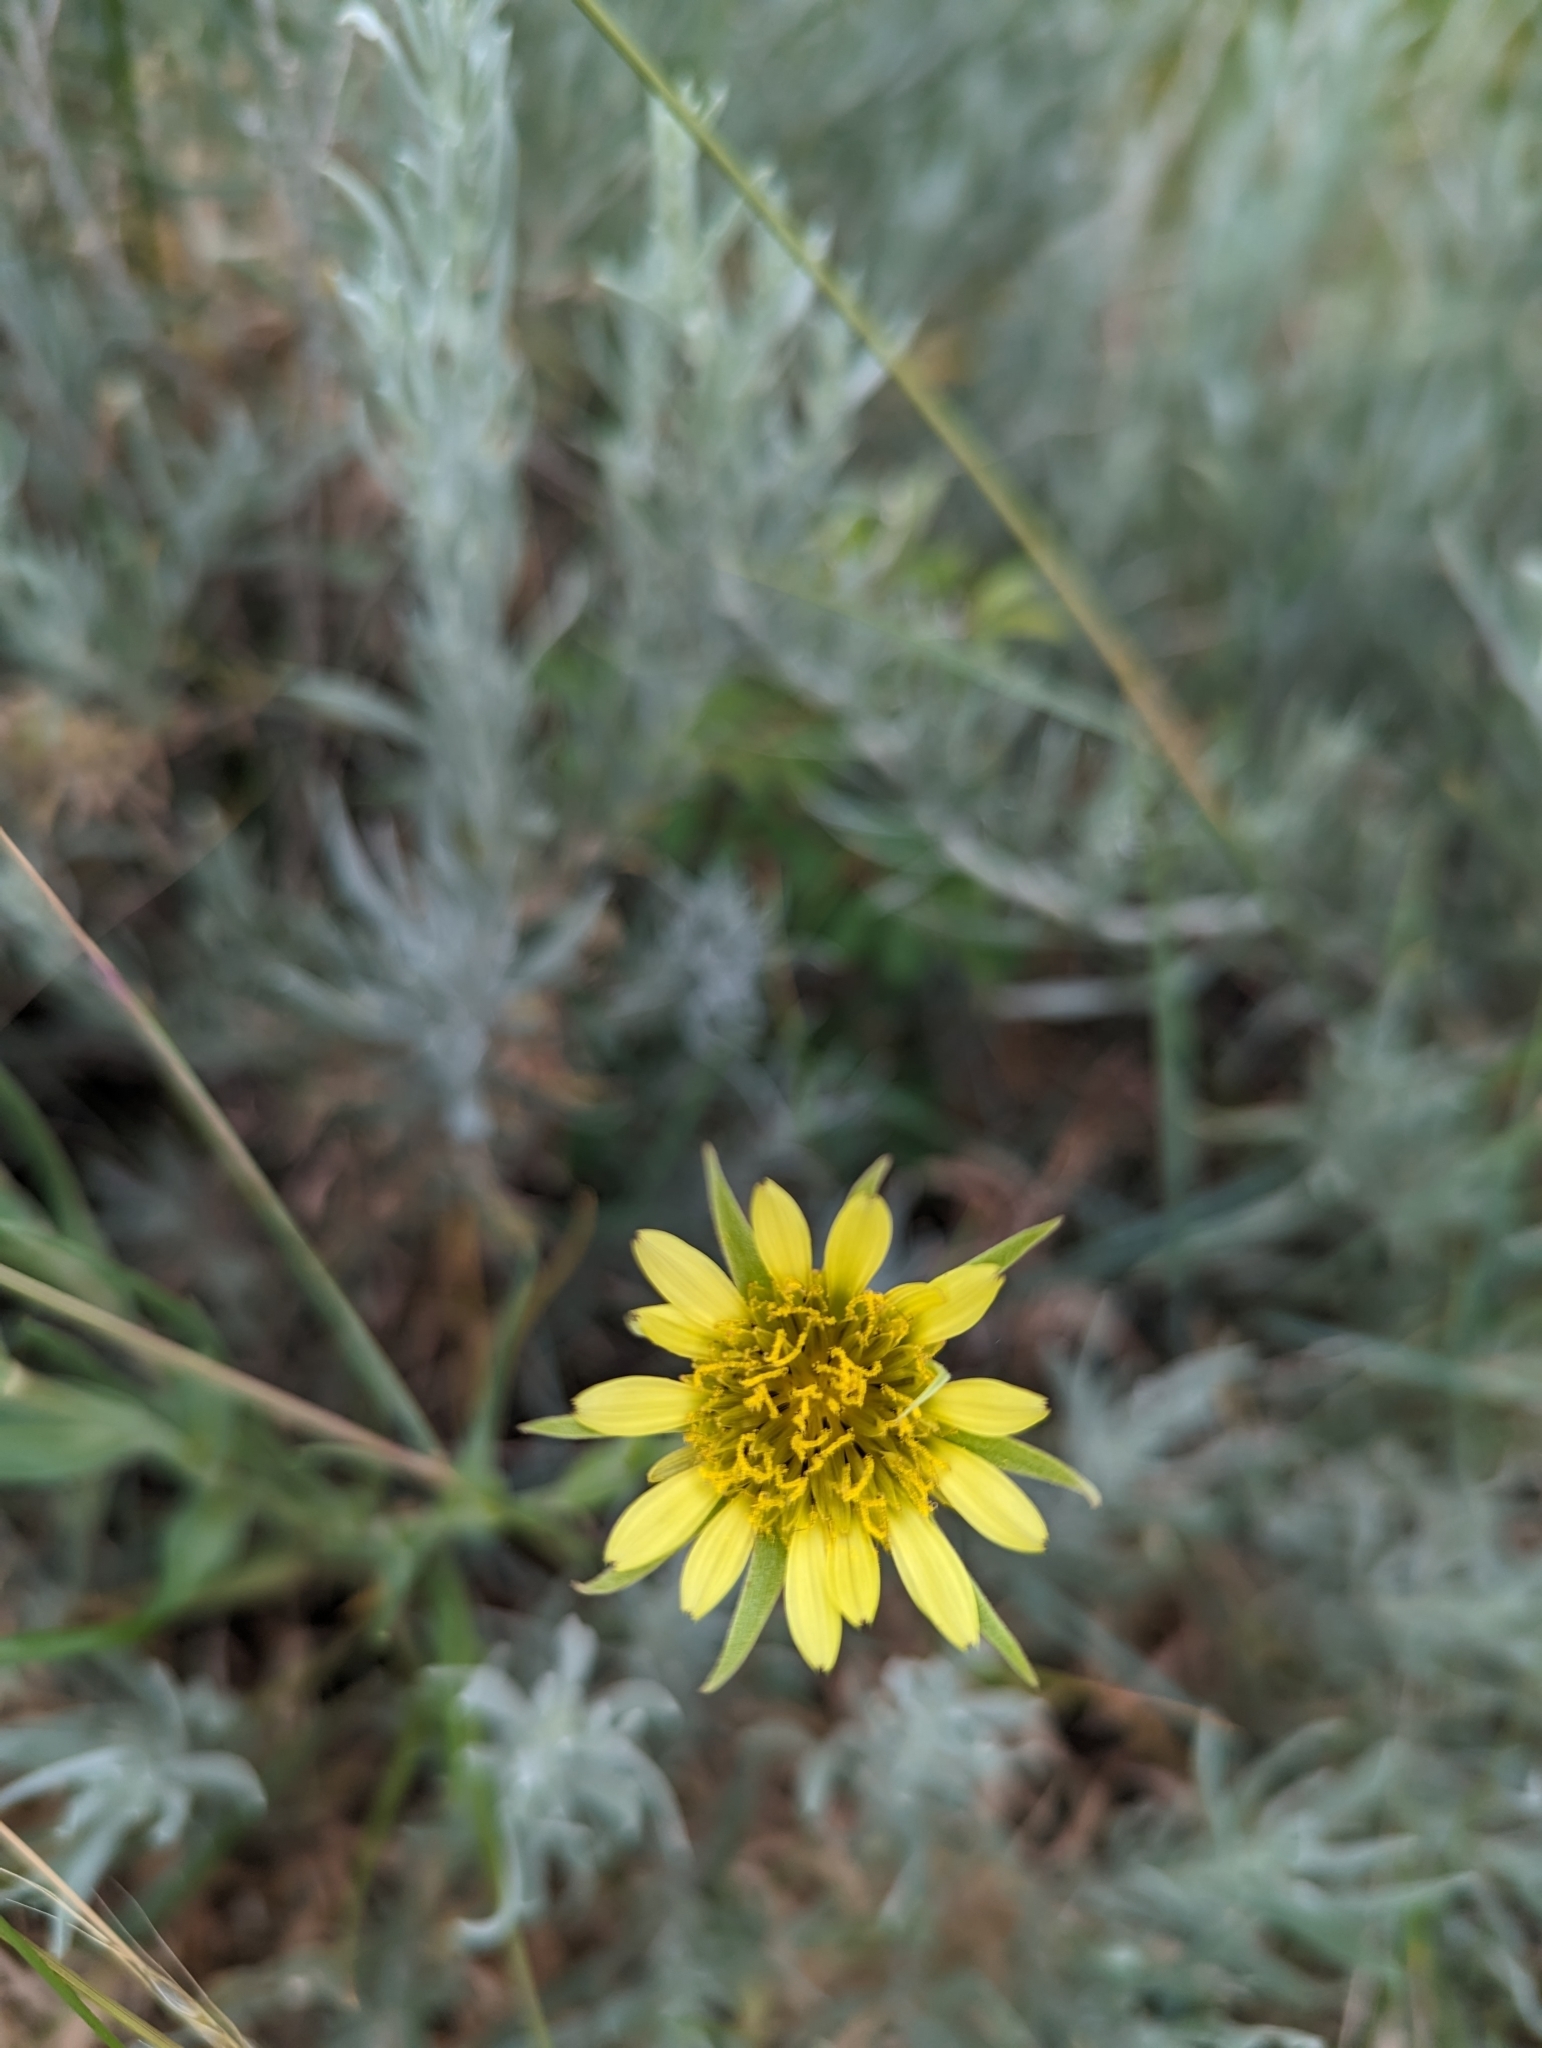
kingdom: Plantae
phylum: Tracheophyta
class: Magnoliopsida
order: Asterales
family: Asteraceae
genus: Tragopogon
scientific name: Tragopogon dubius
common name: Yellow salsify
